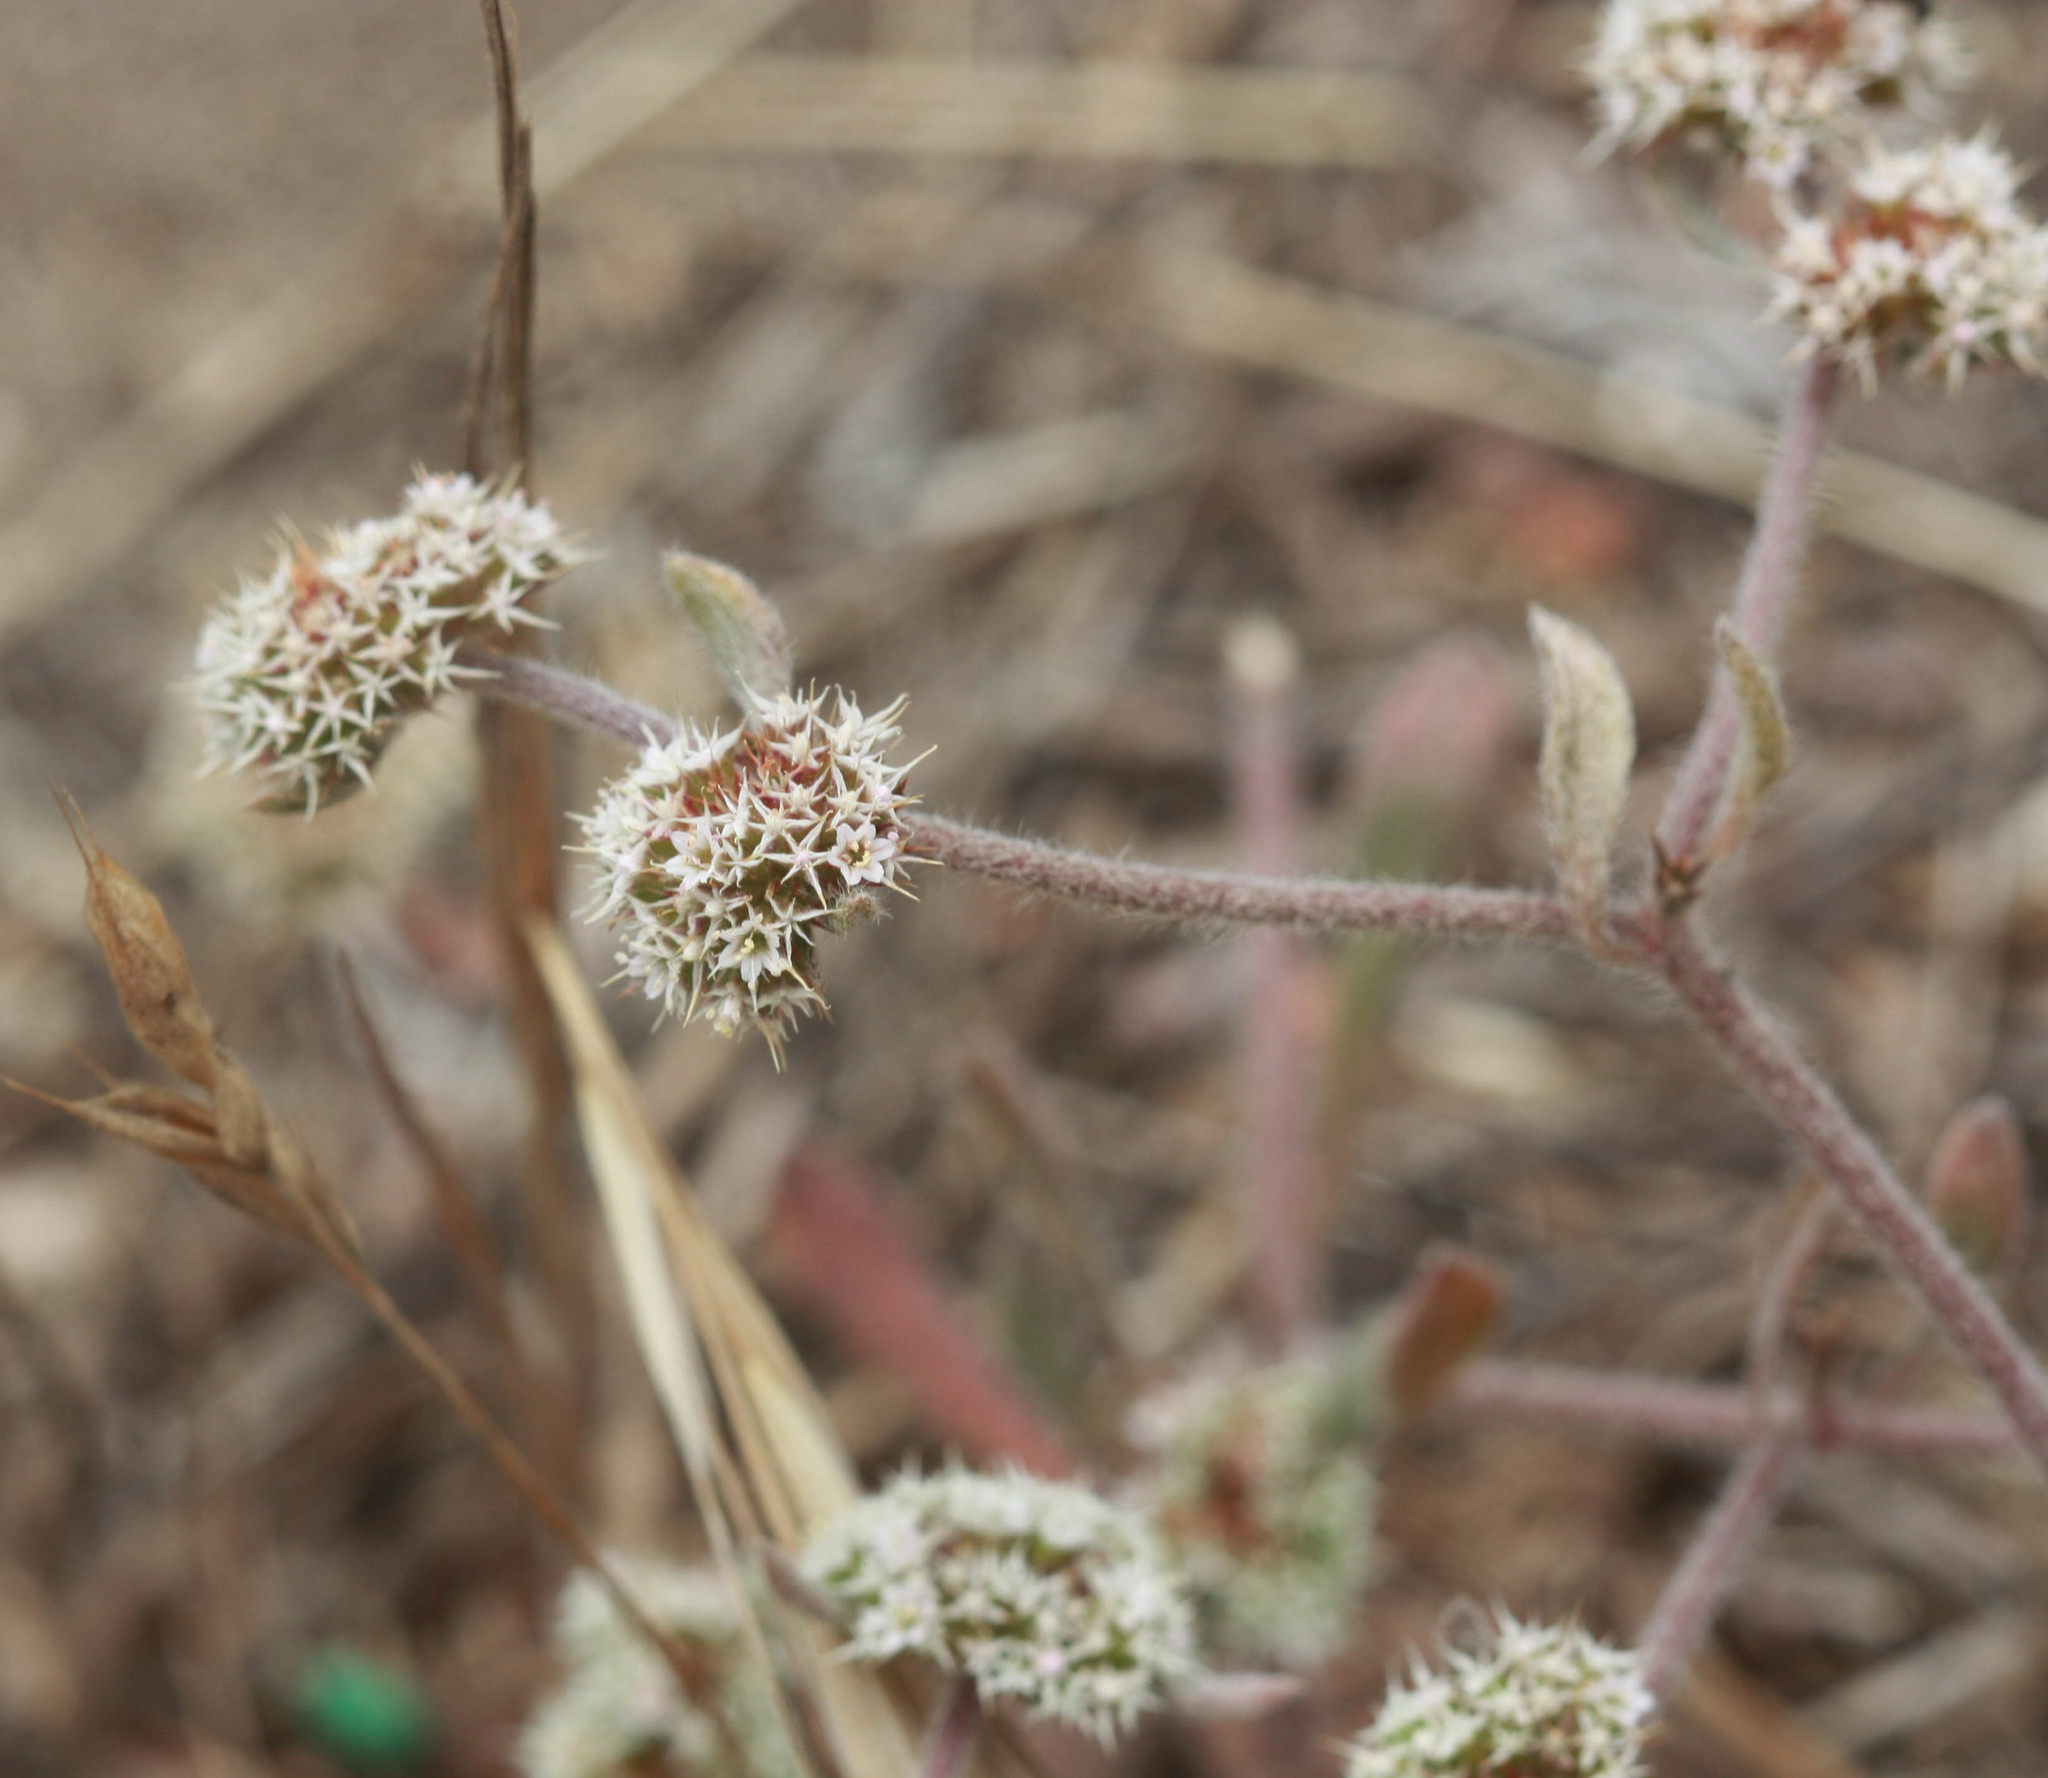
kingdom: Plantae
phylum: Tracheophyta
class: Magnoliopsida
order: Caryophyllales
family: Polygonaceae
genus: Chorizanthe
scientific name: Chorizanthe cuspidata
